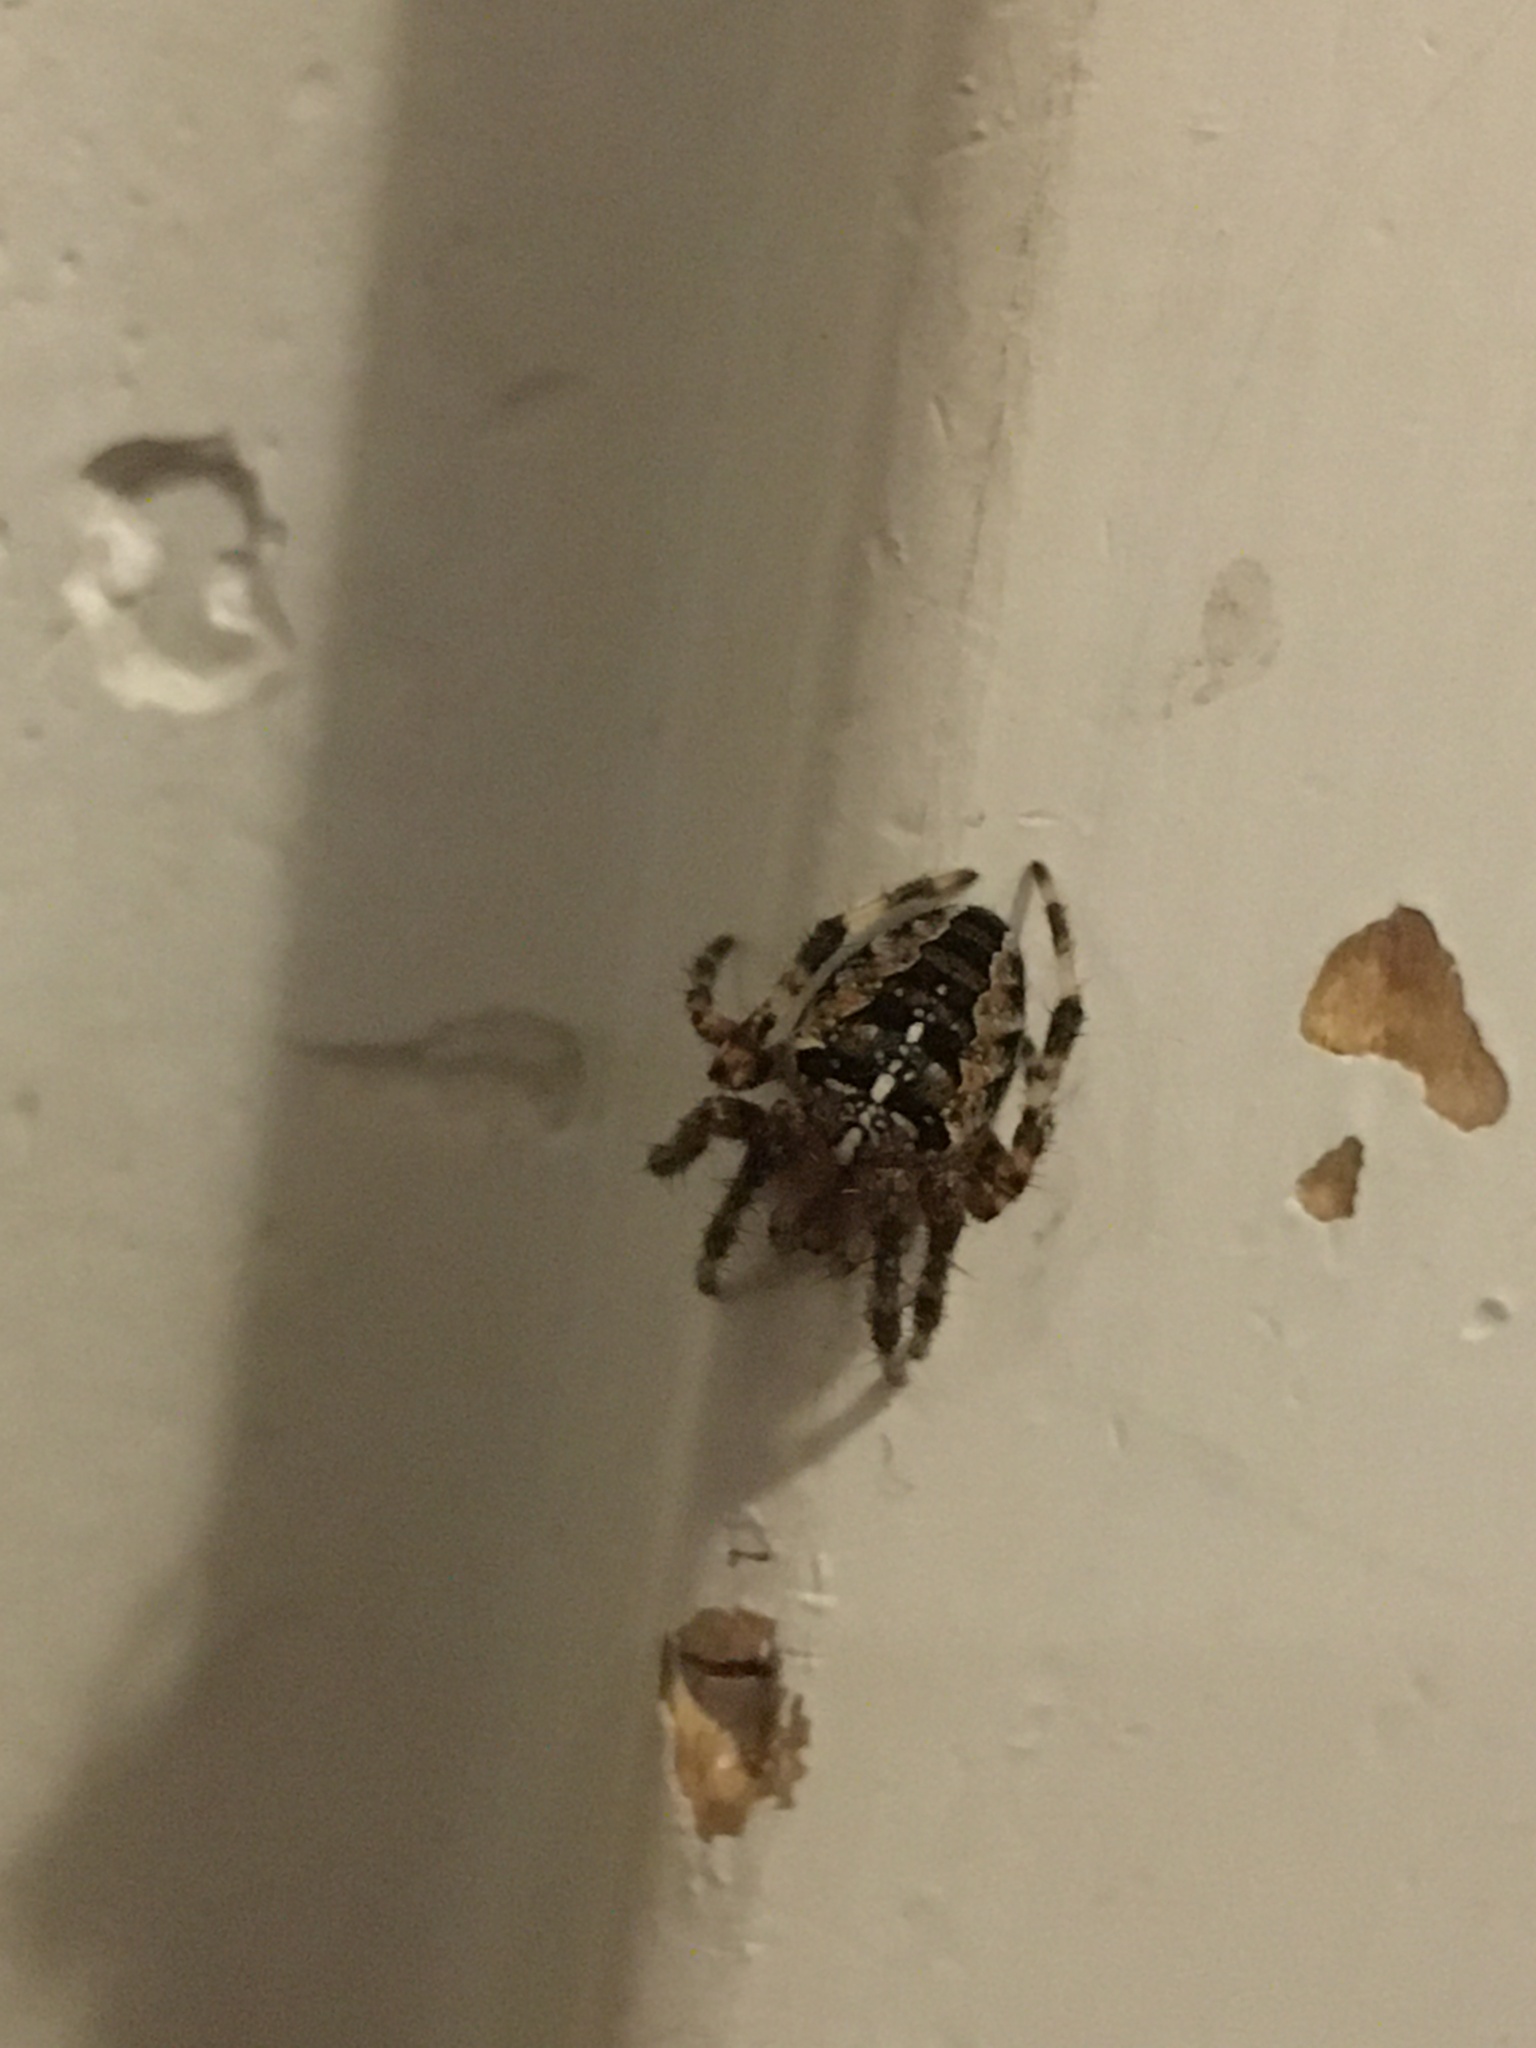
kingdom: Animalia
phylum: Arthropoda
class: Arachnida
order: Araneae
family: Araneidae
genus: Araneus
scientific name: Araneus diadematus
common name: Cross orbweaver
